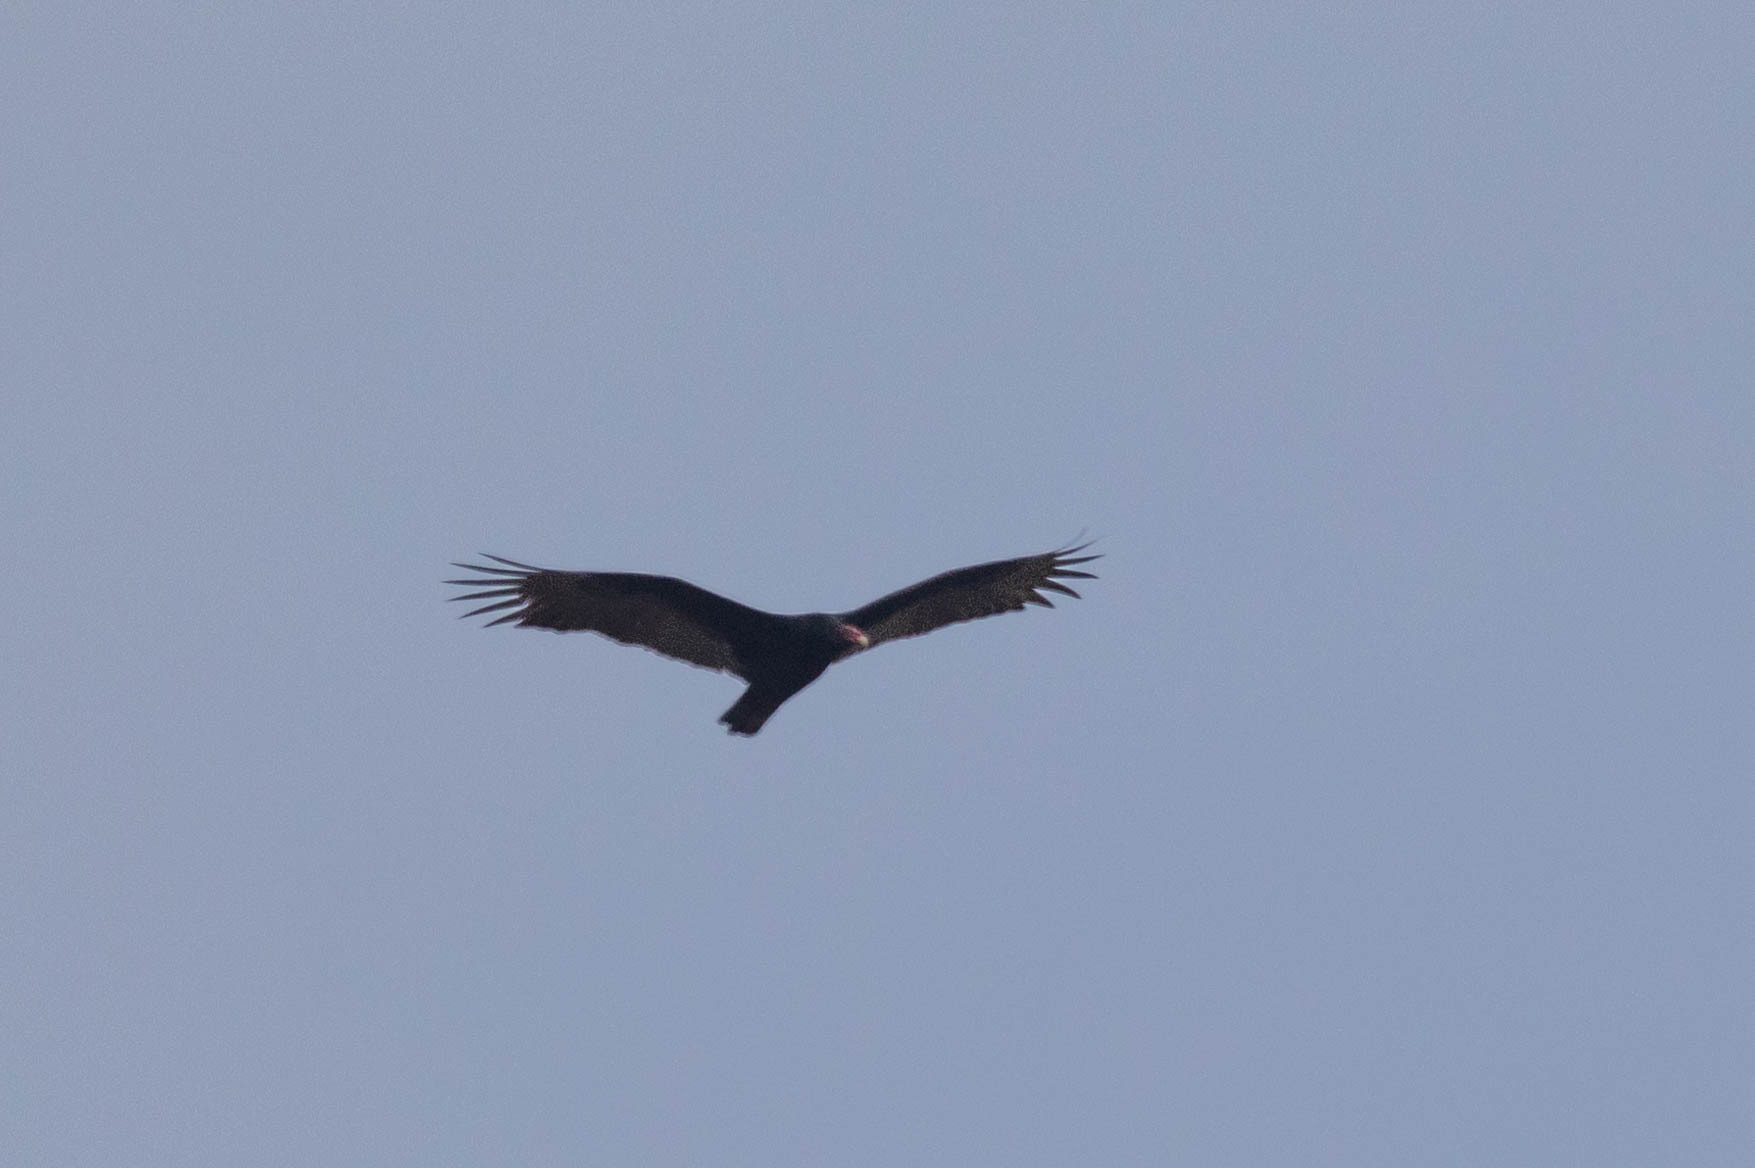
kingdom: Animalia
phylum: Chordata
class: Aves
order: Accipitriformes
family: Cathartidae
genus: Cathartes
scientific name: Cathartes aura
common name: Turkey vulture
